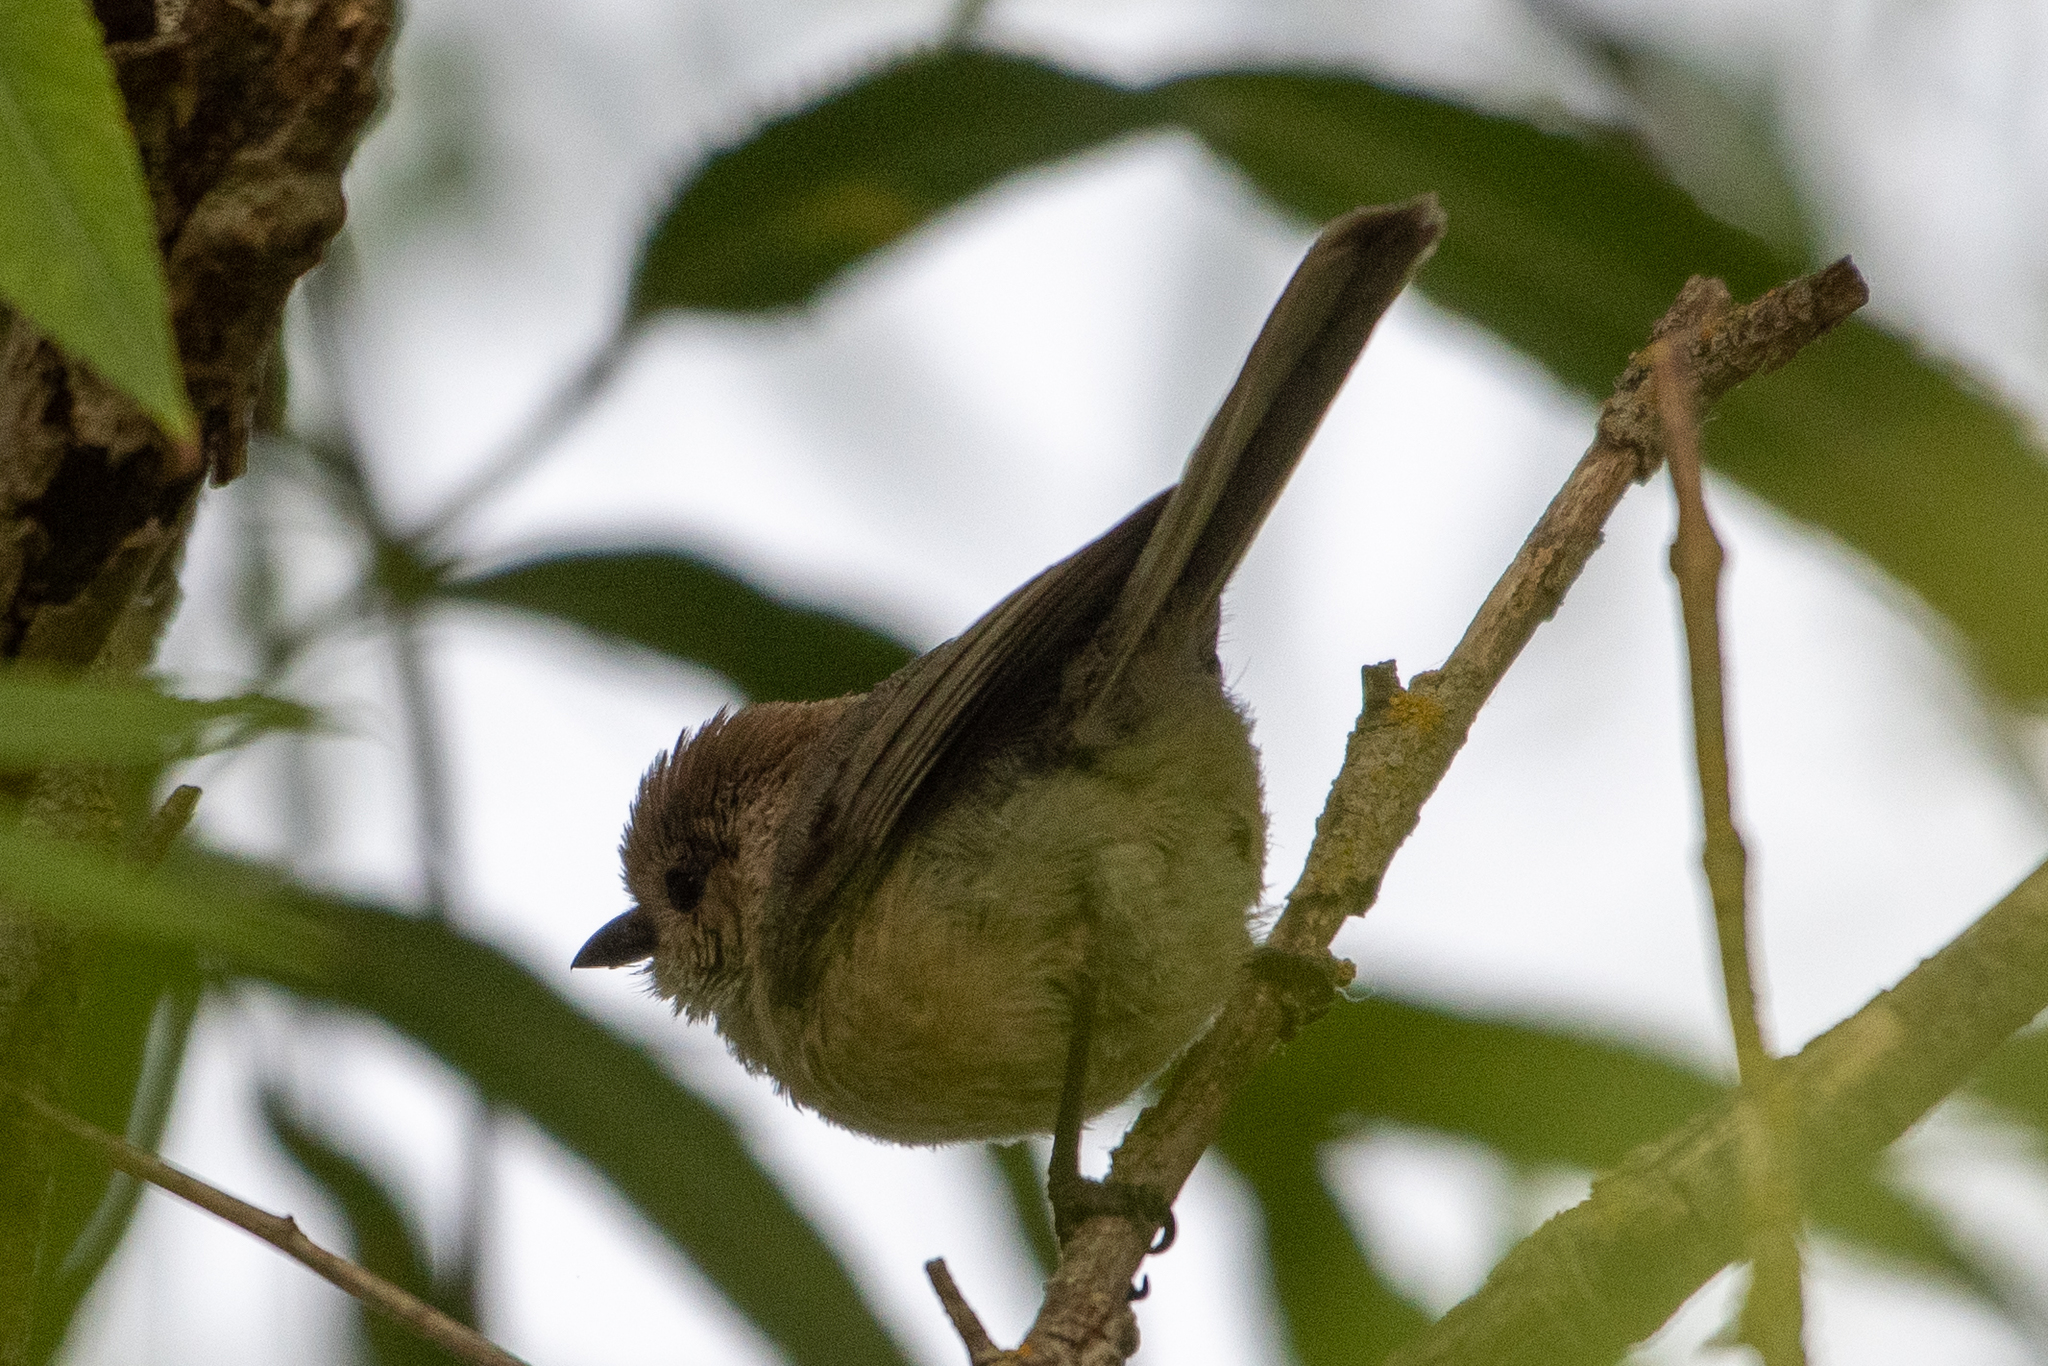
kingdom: Animalia
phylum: Chordata
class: Aves
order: Passeriformes
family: Aegithalidae
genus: Psaltriparus
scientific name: Psaltriparus minimus
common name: American bushtit
